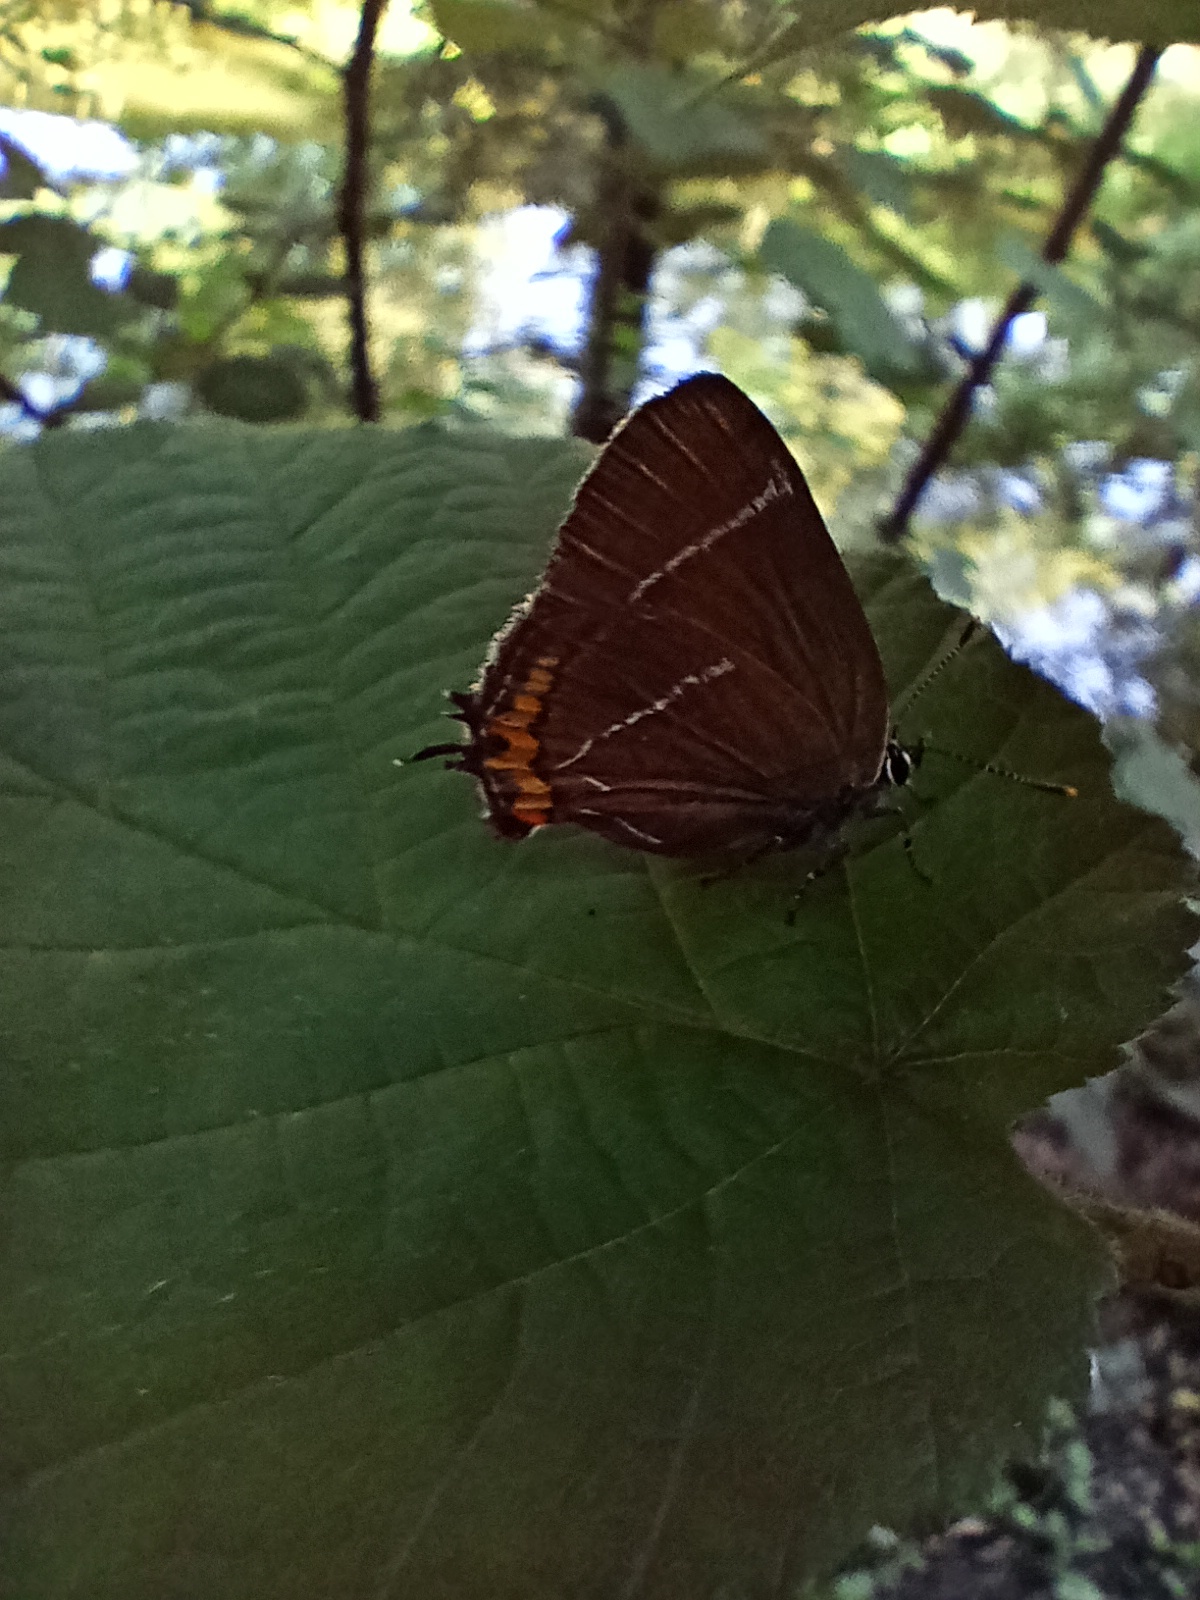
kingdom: Animalia
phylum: Arthropoda
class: Insecta
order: Lepidoptera
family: Lycaenidae
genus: Satyrium
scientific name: Satyrium w-album
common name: White-letter hairstreak
